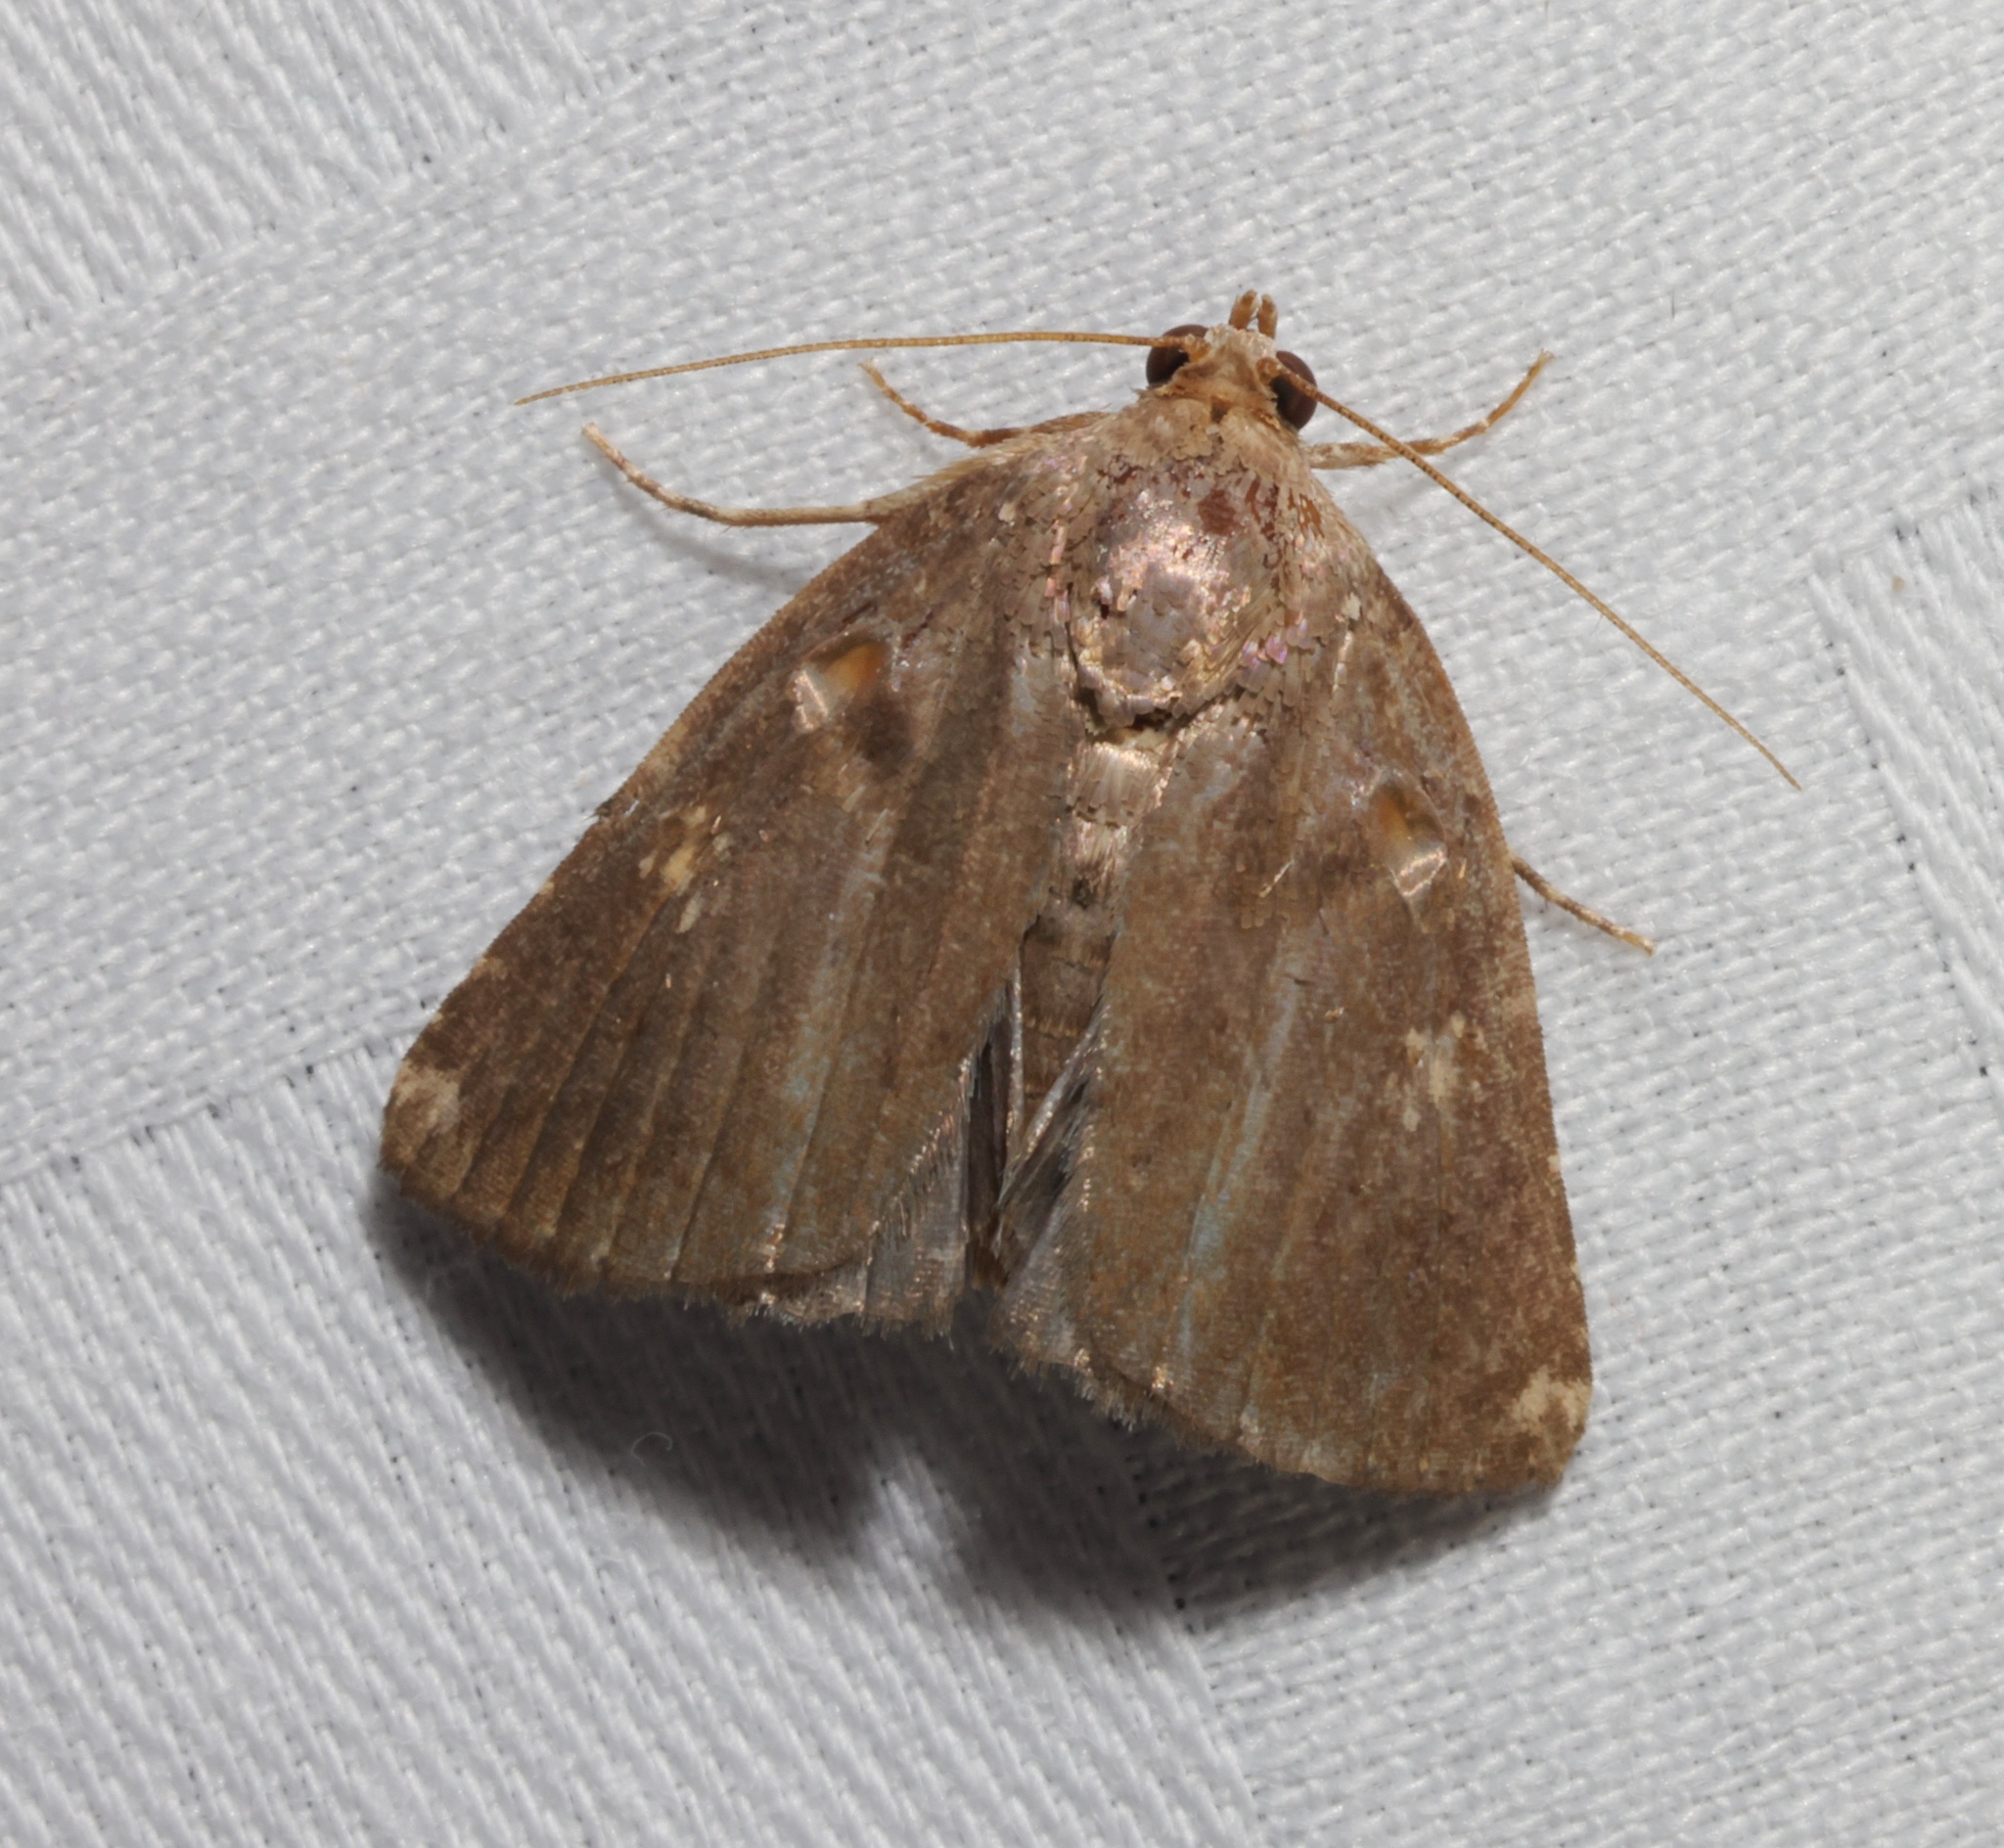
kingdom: Animalia
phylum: Arthropoda
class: Insecta
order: Lepidoptera
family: Noctuidae
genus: Amyna
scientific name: Amyna natalis
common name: Iiima moth
